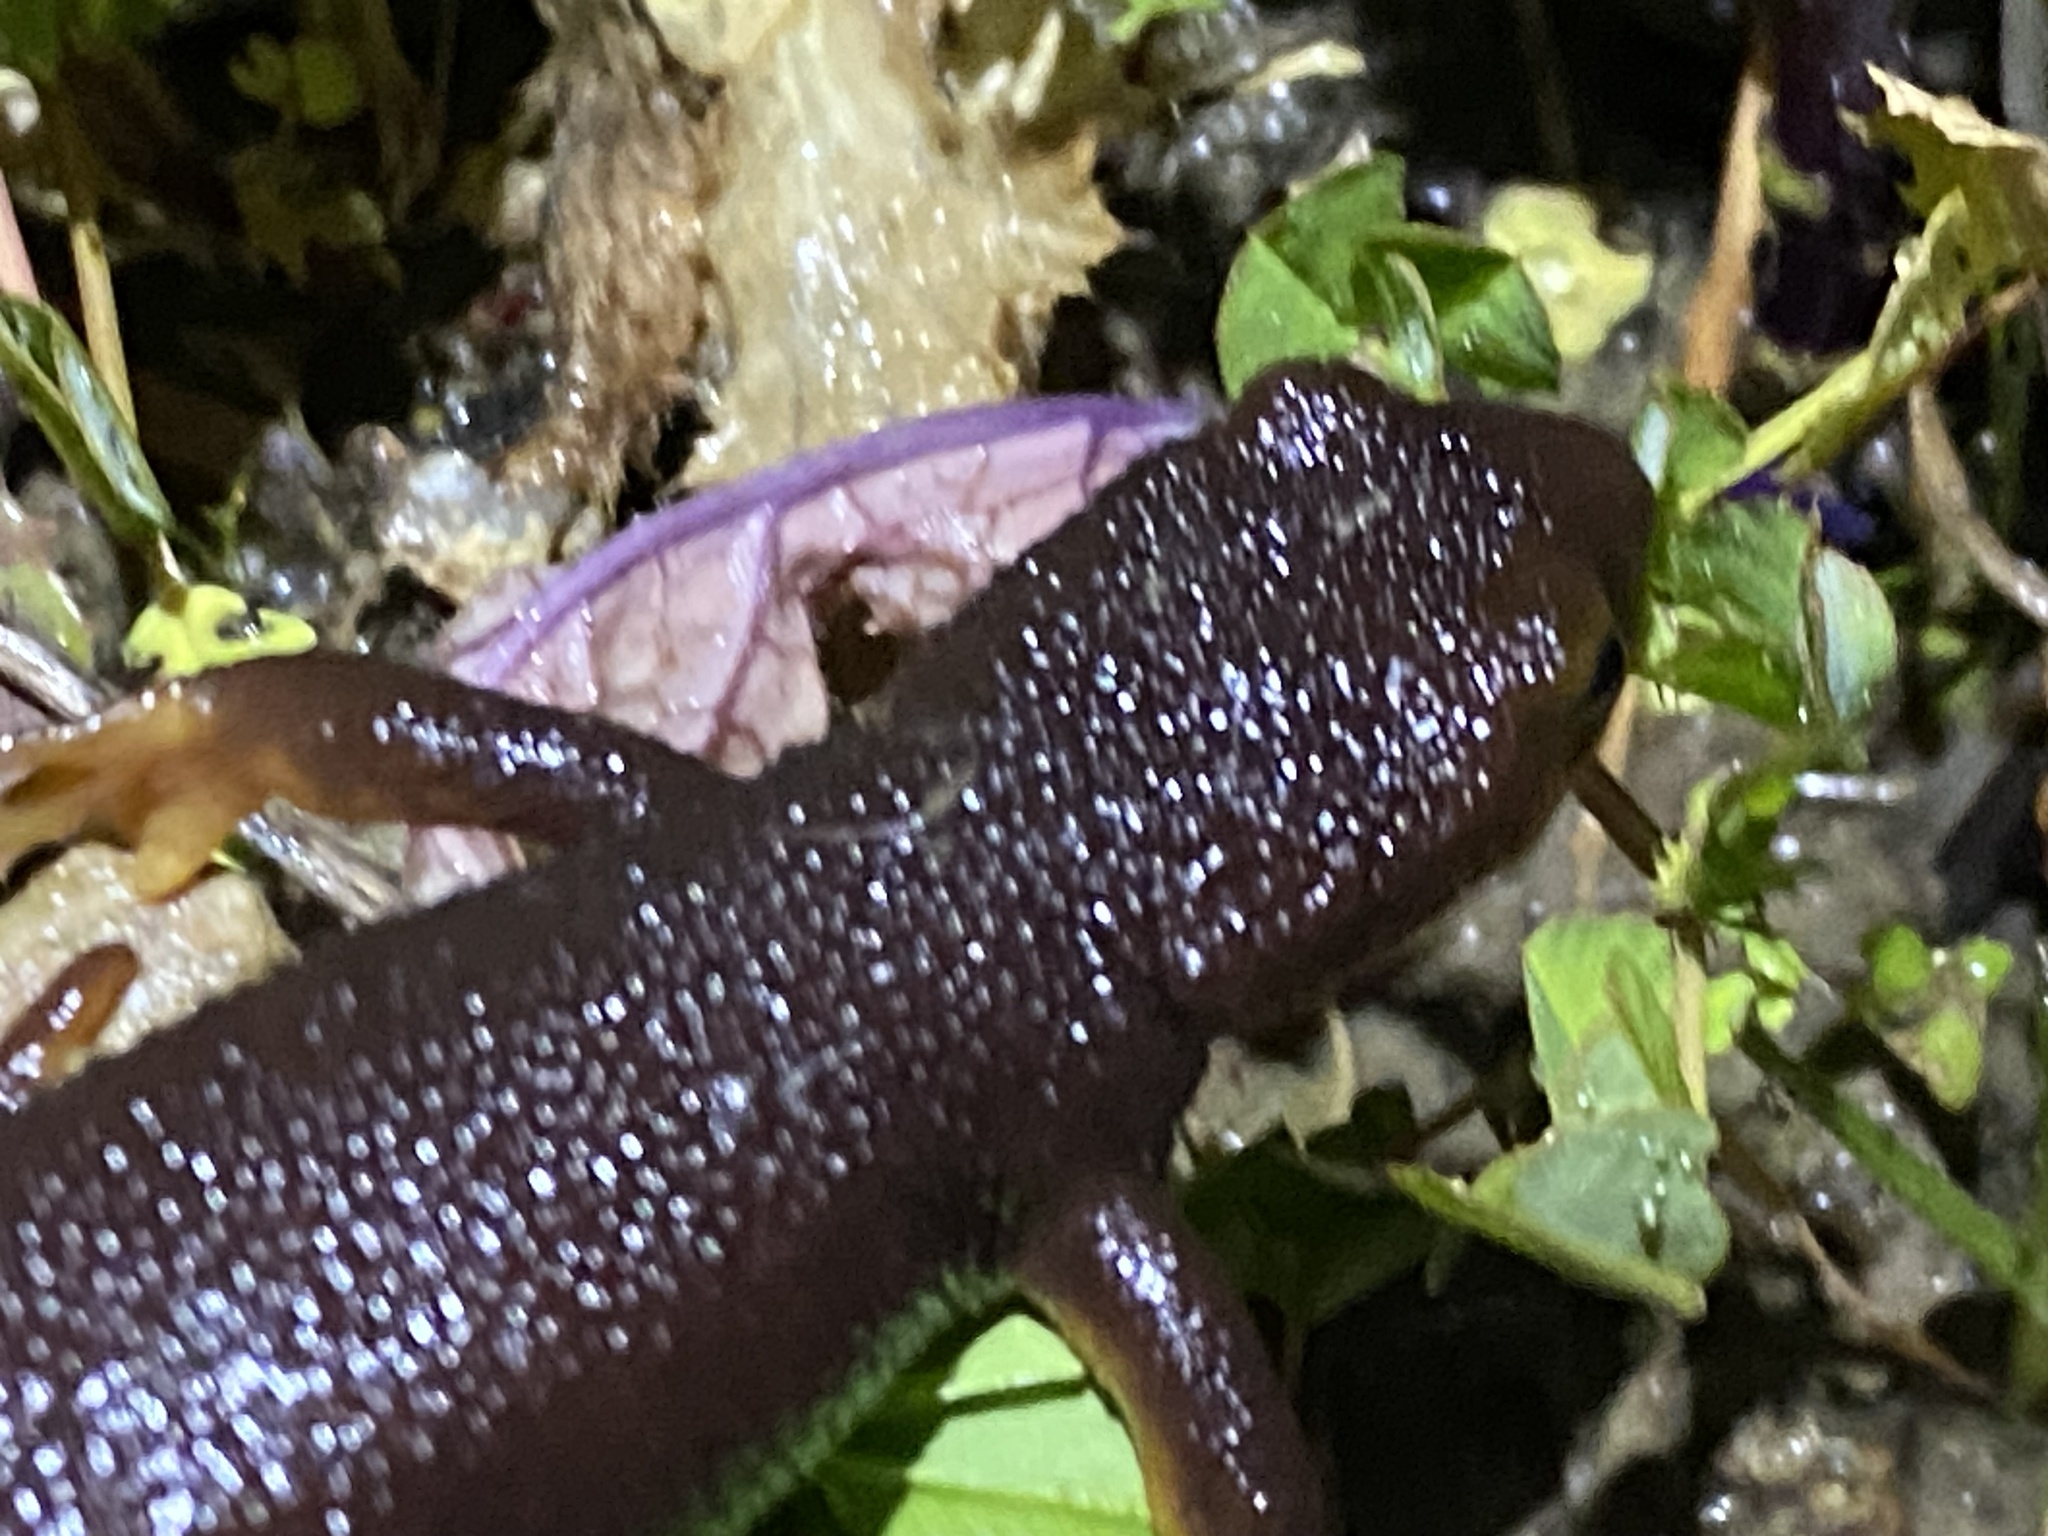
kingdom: Animalia
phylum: Chordata
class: Amphibia
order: Caudata
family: Salamandridae
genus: Taricha
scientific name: Taricha torosa
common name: California newt
